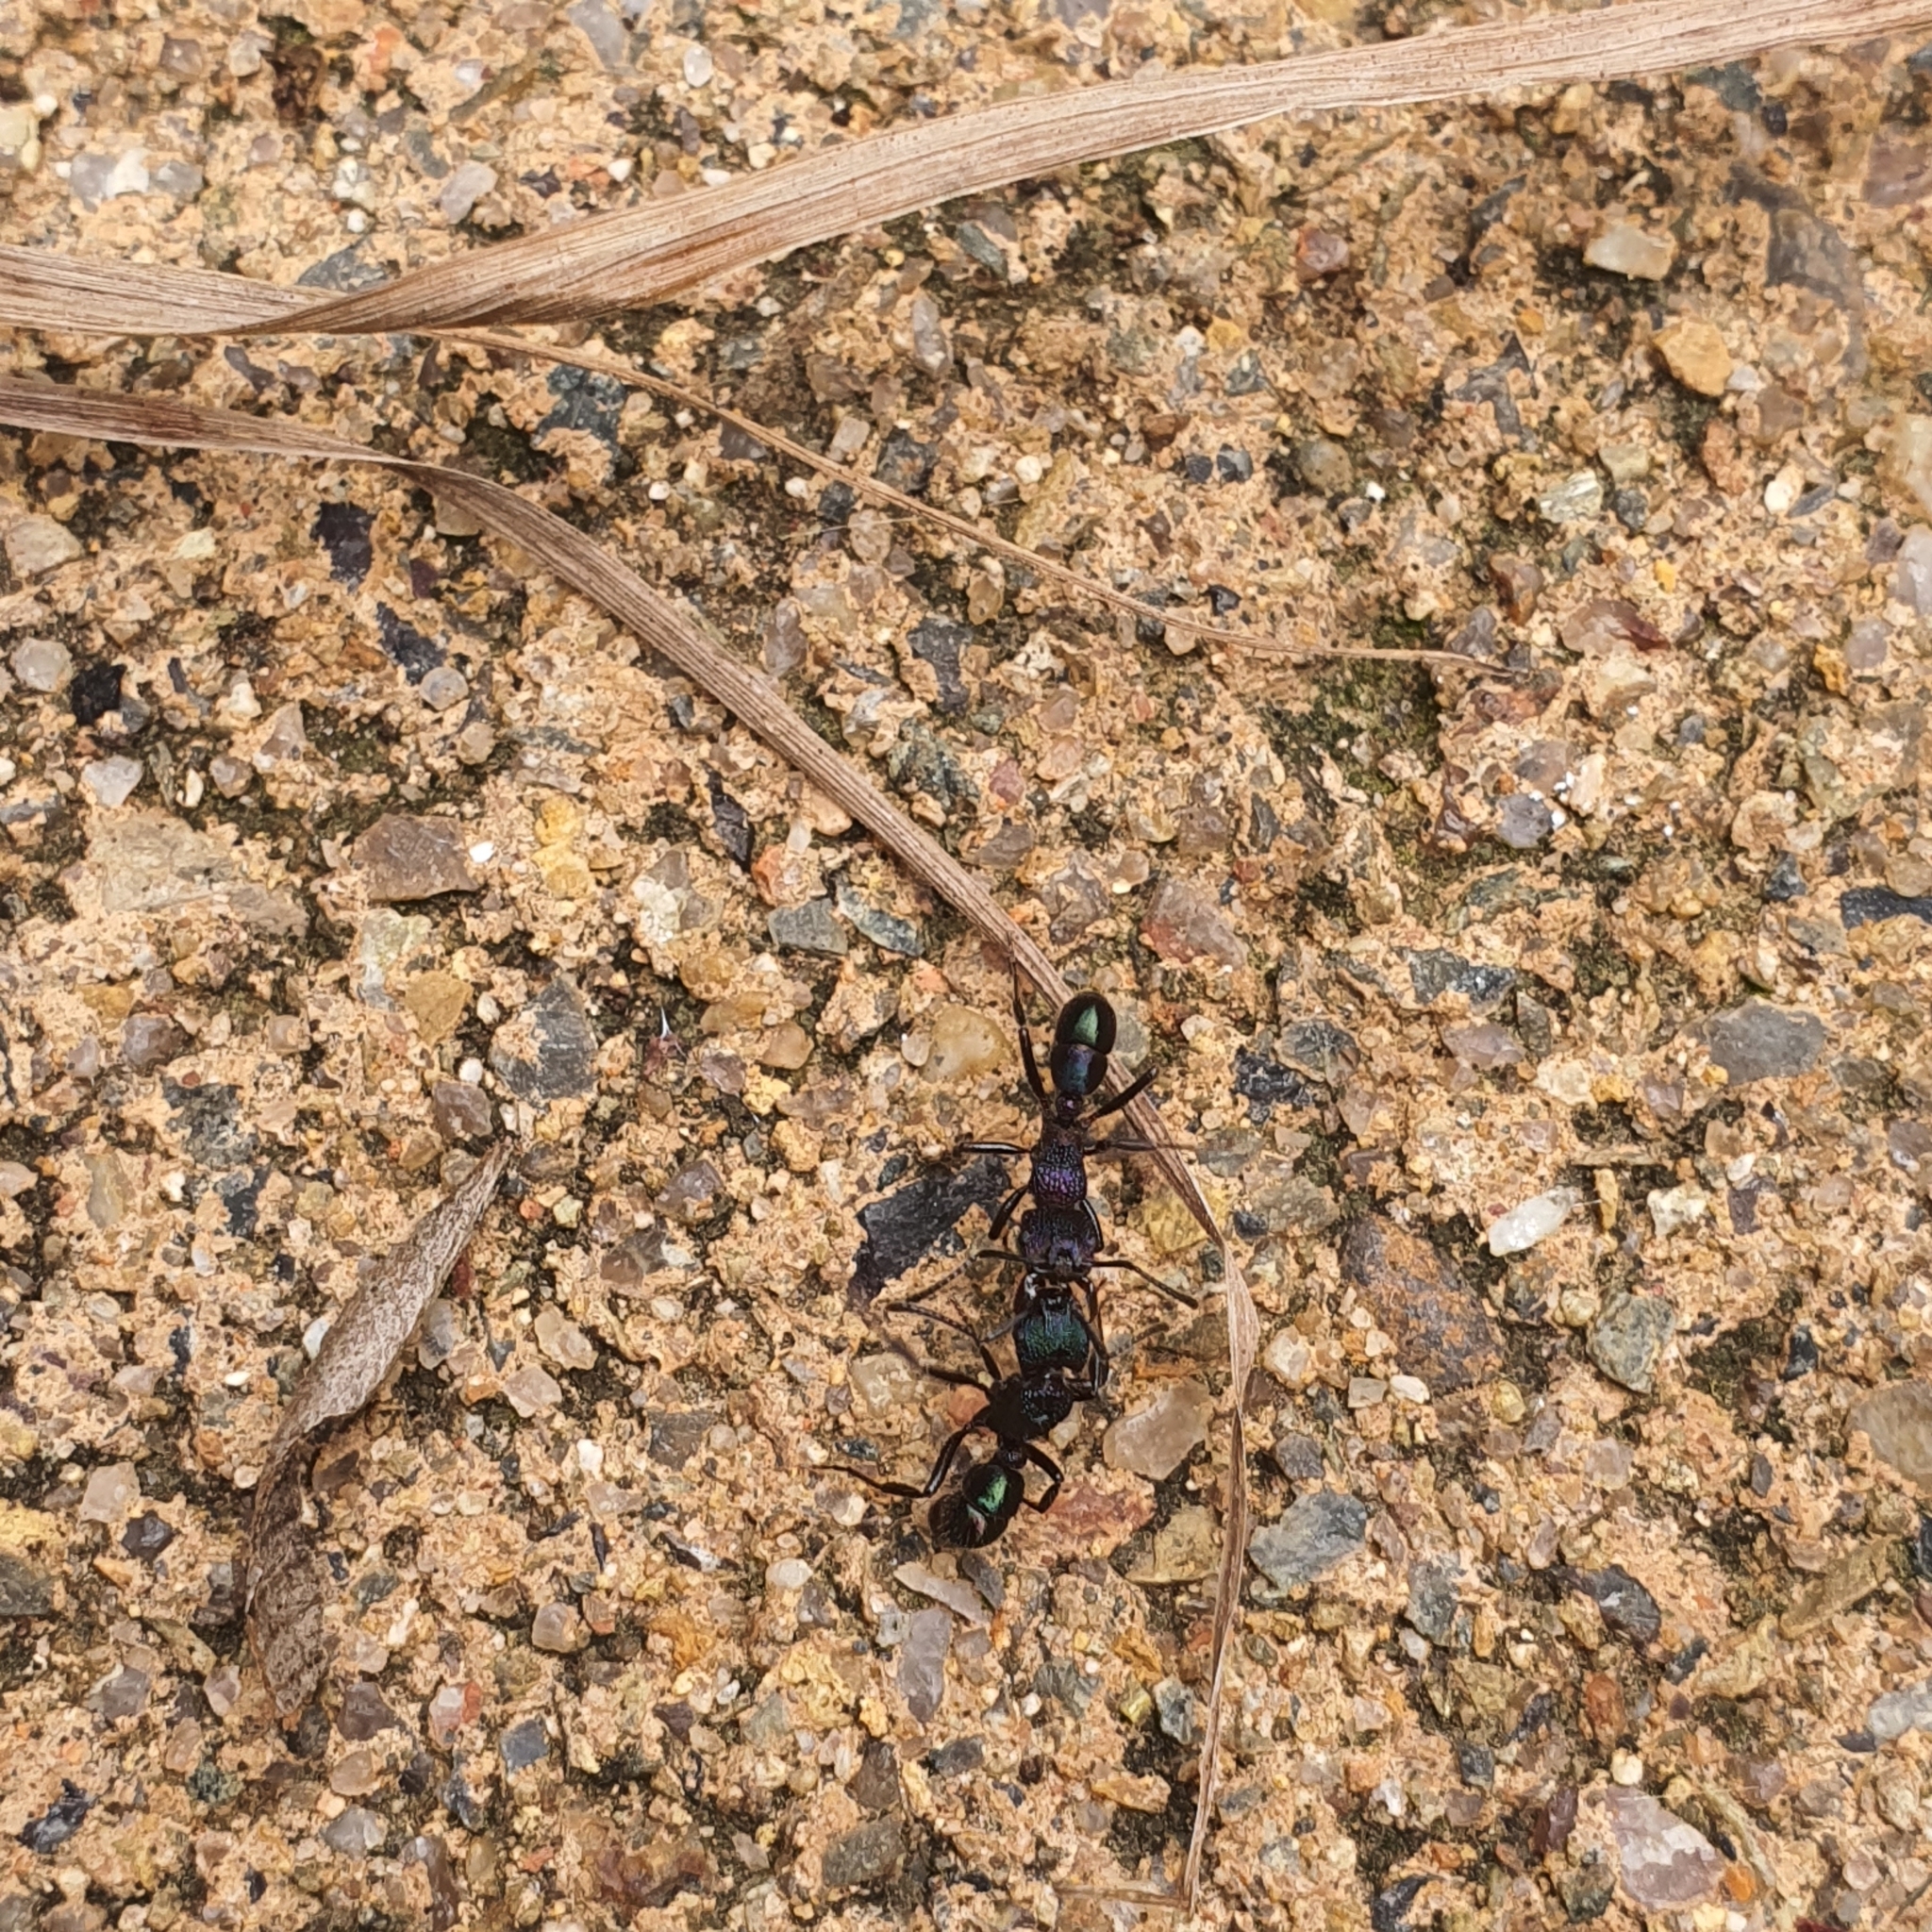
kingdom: Animalia
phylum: Arthropoda
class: Insecta
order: Hymenoptera
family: Formicidae
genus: Rhytidoponera
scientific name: Rhytidoponera metallica
